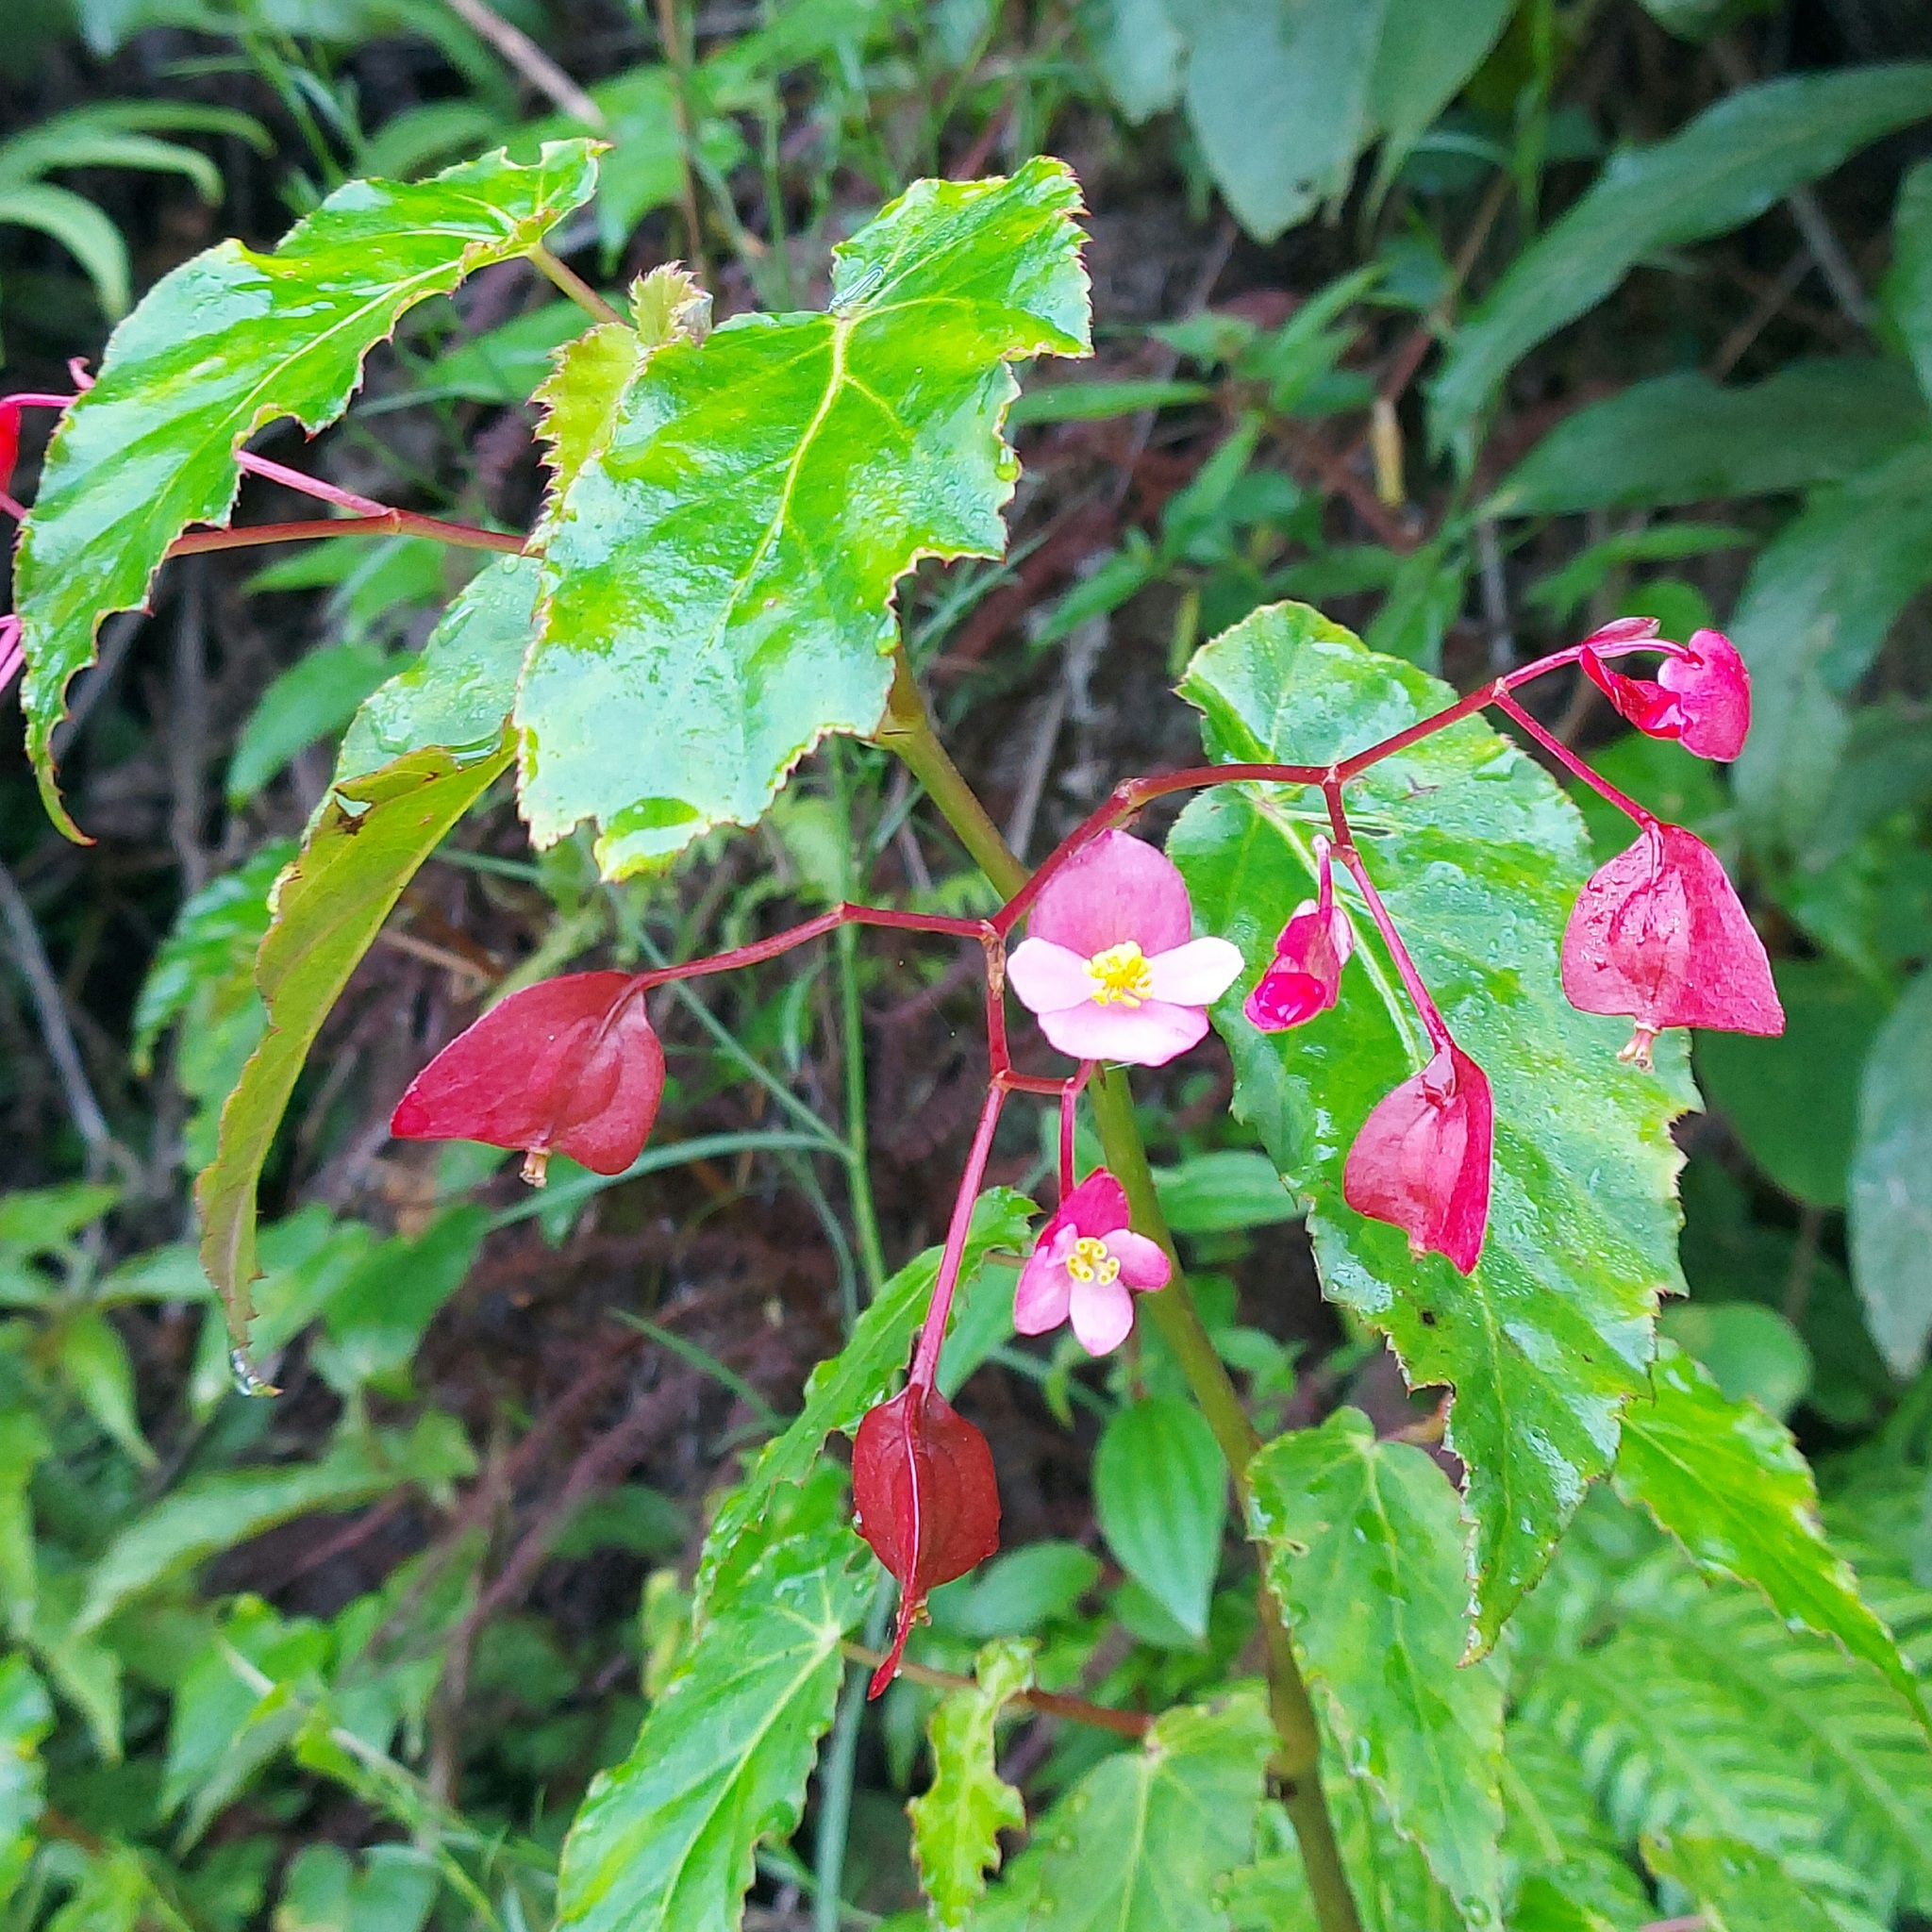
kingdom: Plantae
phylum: Tracheophyta
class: Magnoliopsida
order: Cucurbitales
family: Begoniaceae
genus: Begonia
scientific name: Begonia incarnata
